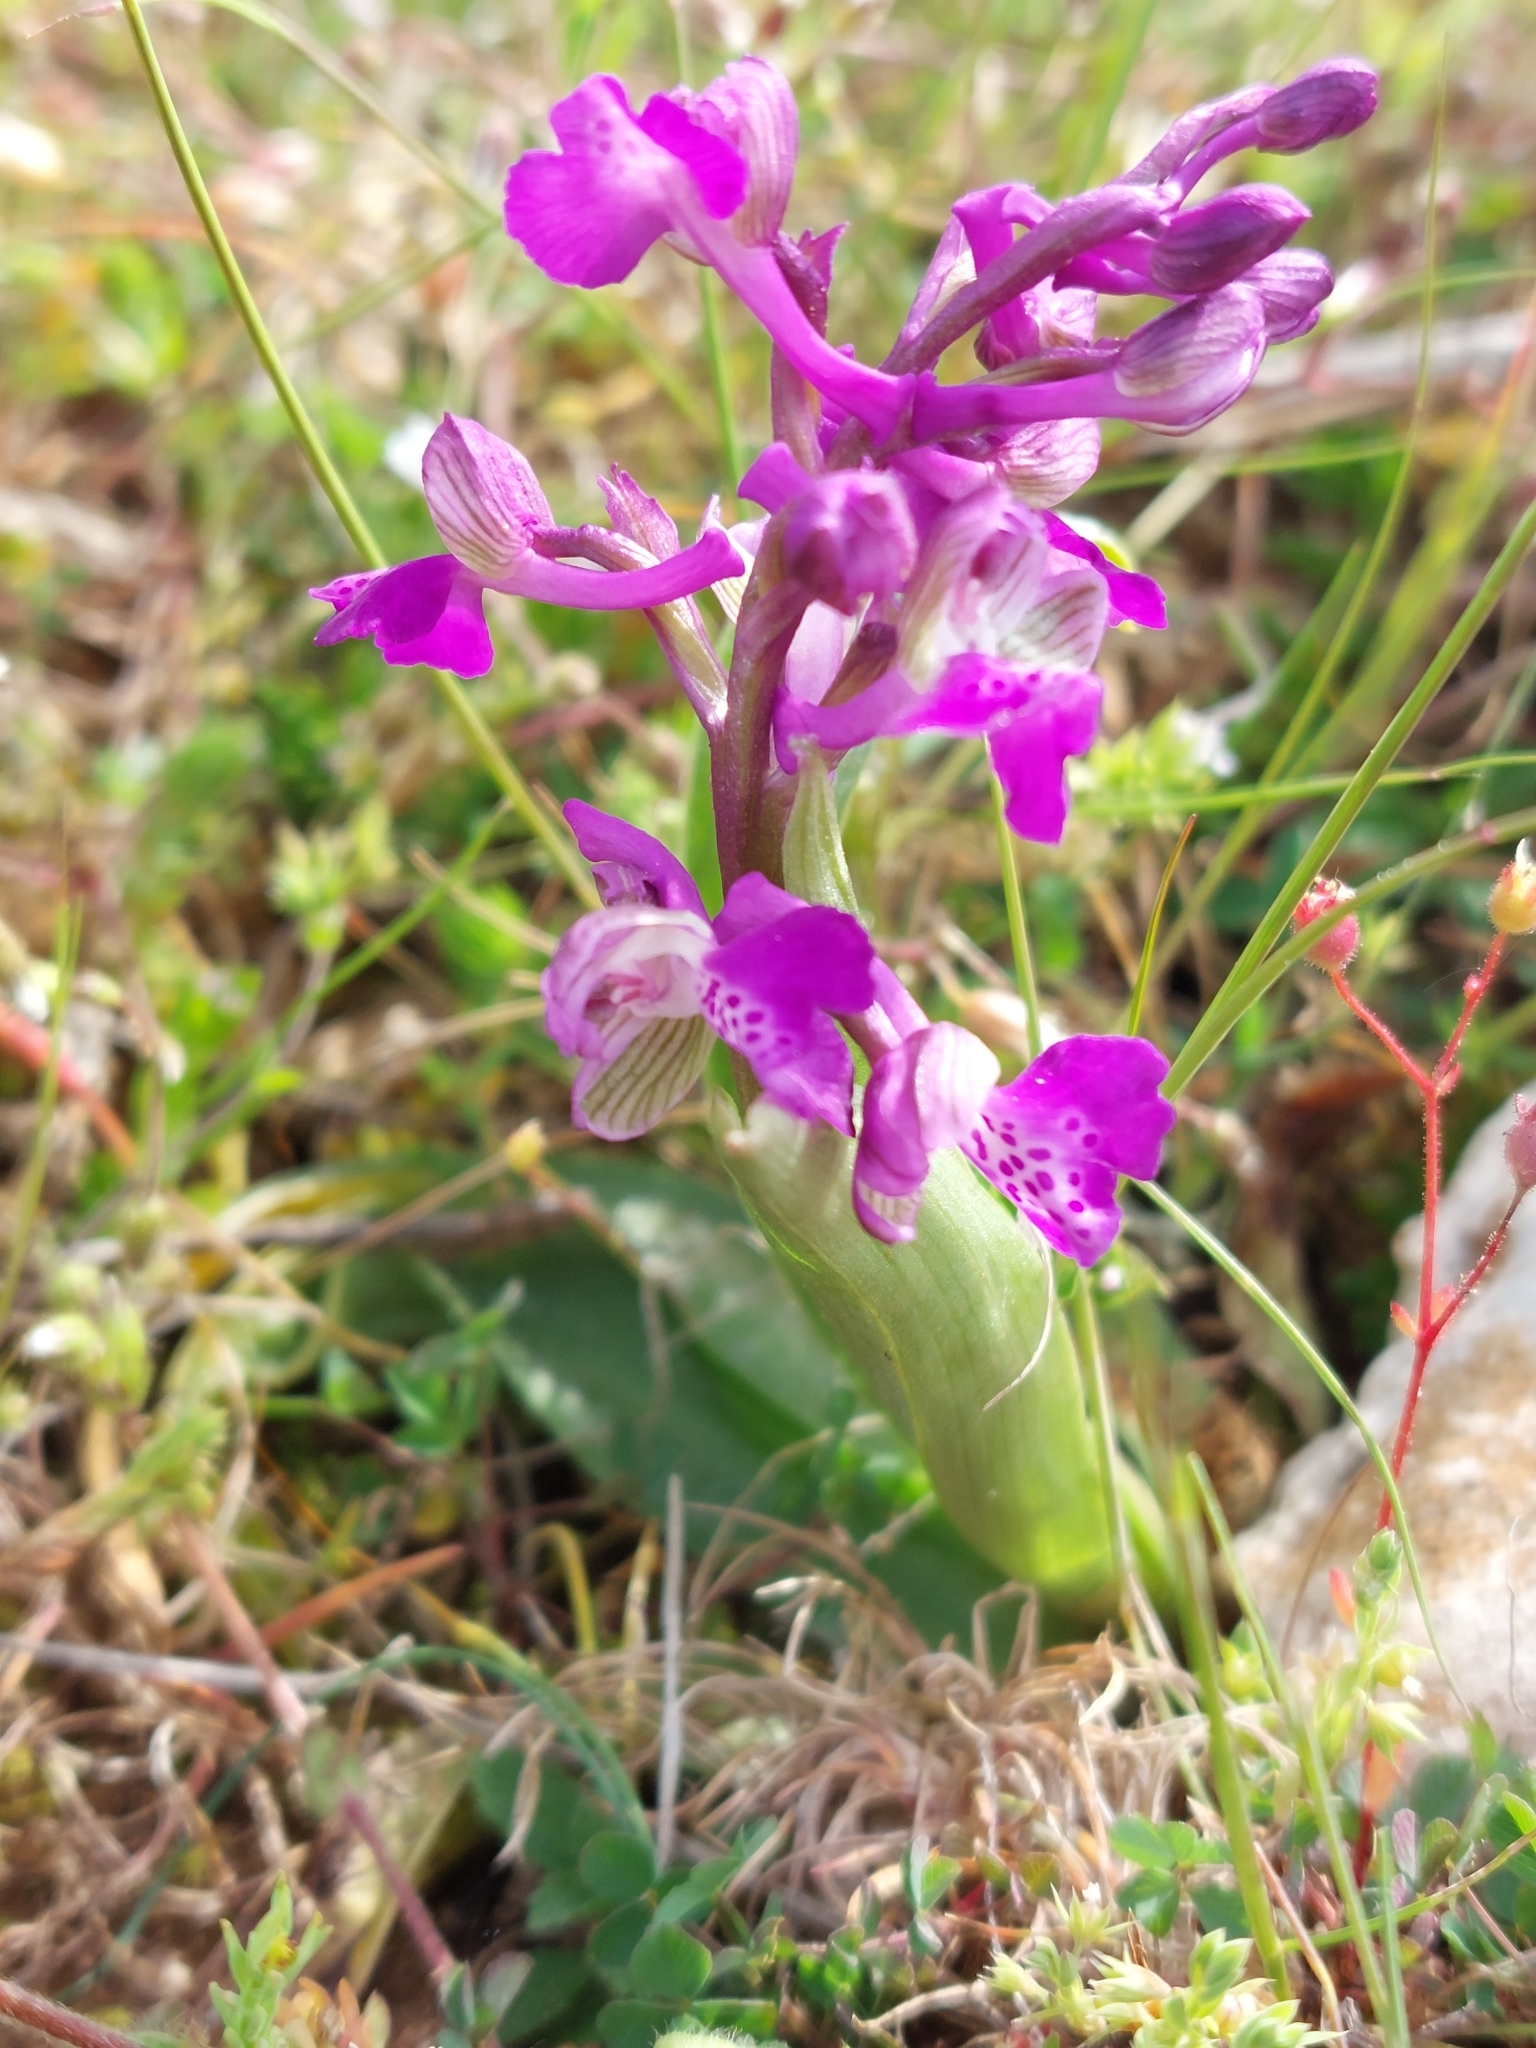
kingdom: Plantae
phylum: Tracheophyta
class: Liliopsida
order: Asparagales
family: Orchidaceae
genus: Anacamptis
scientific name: Anacamptis morio
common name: Green-winged orchid
